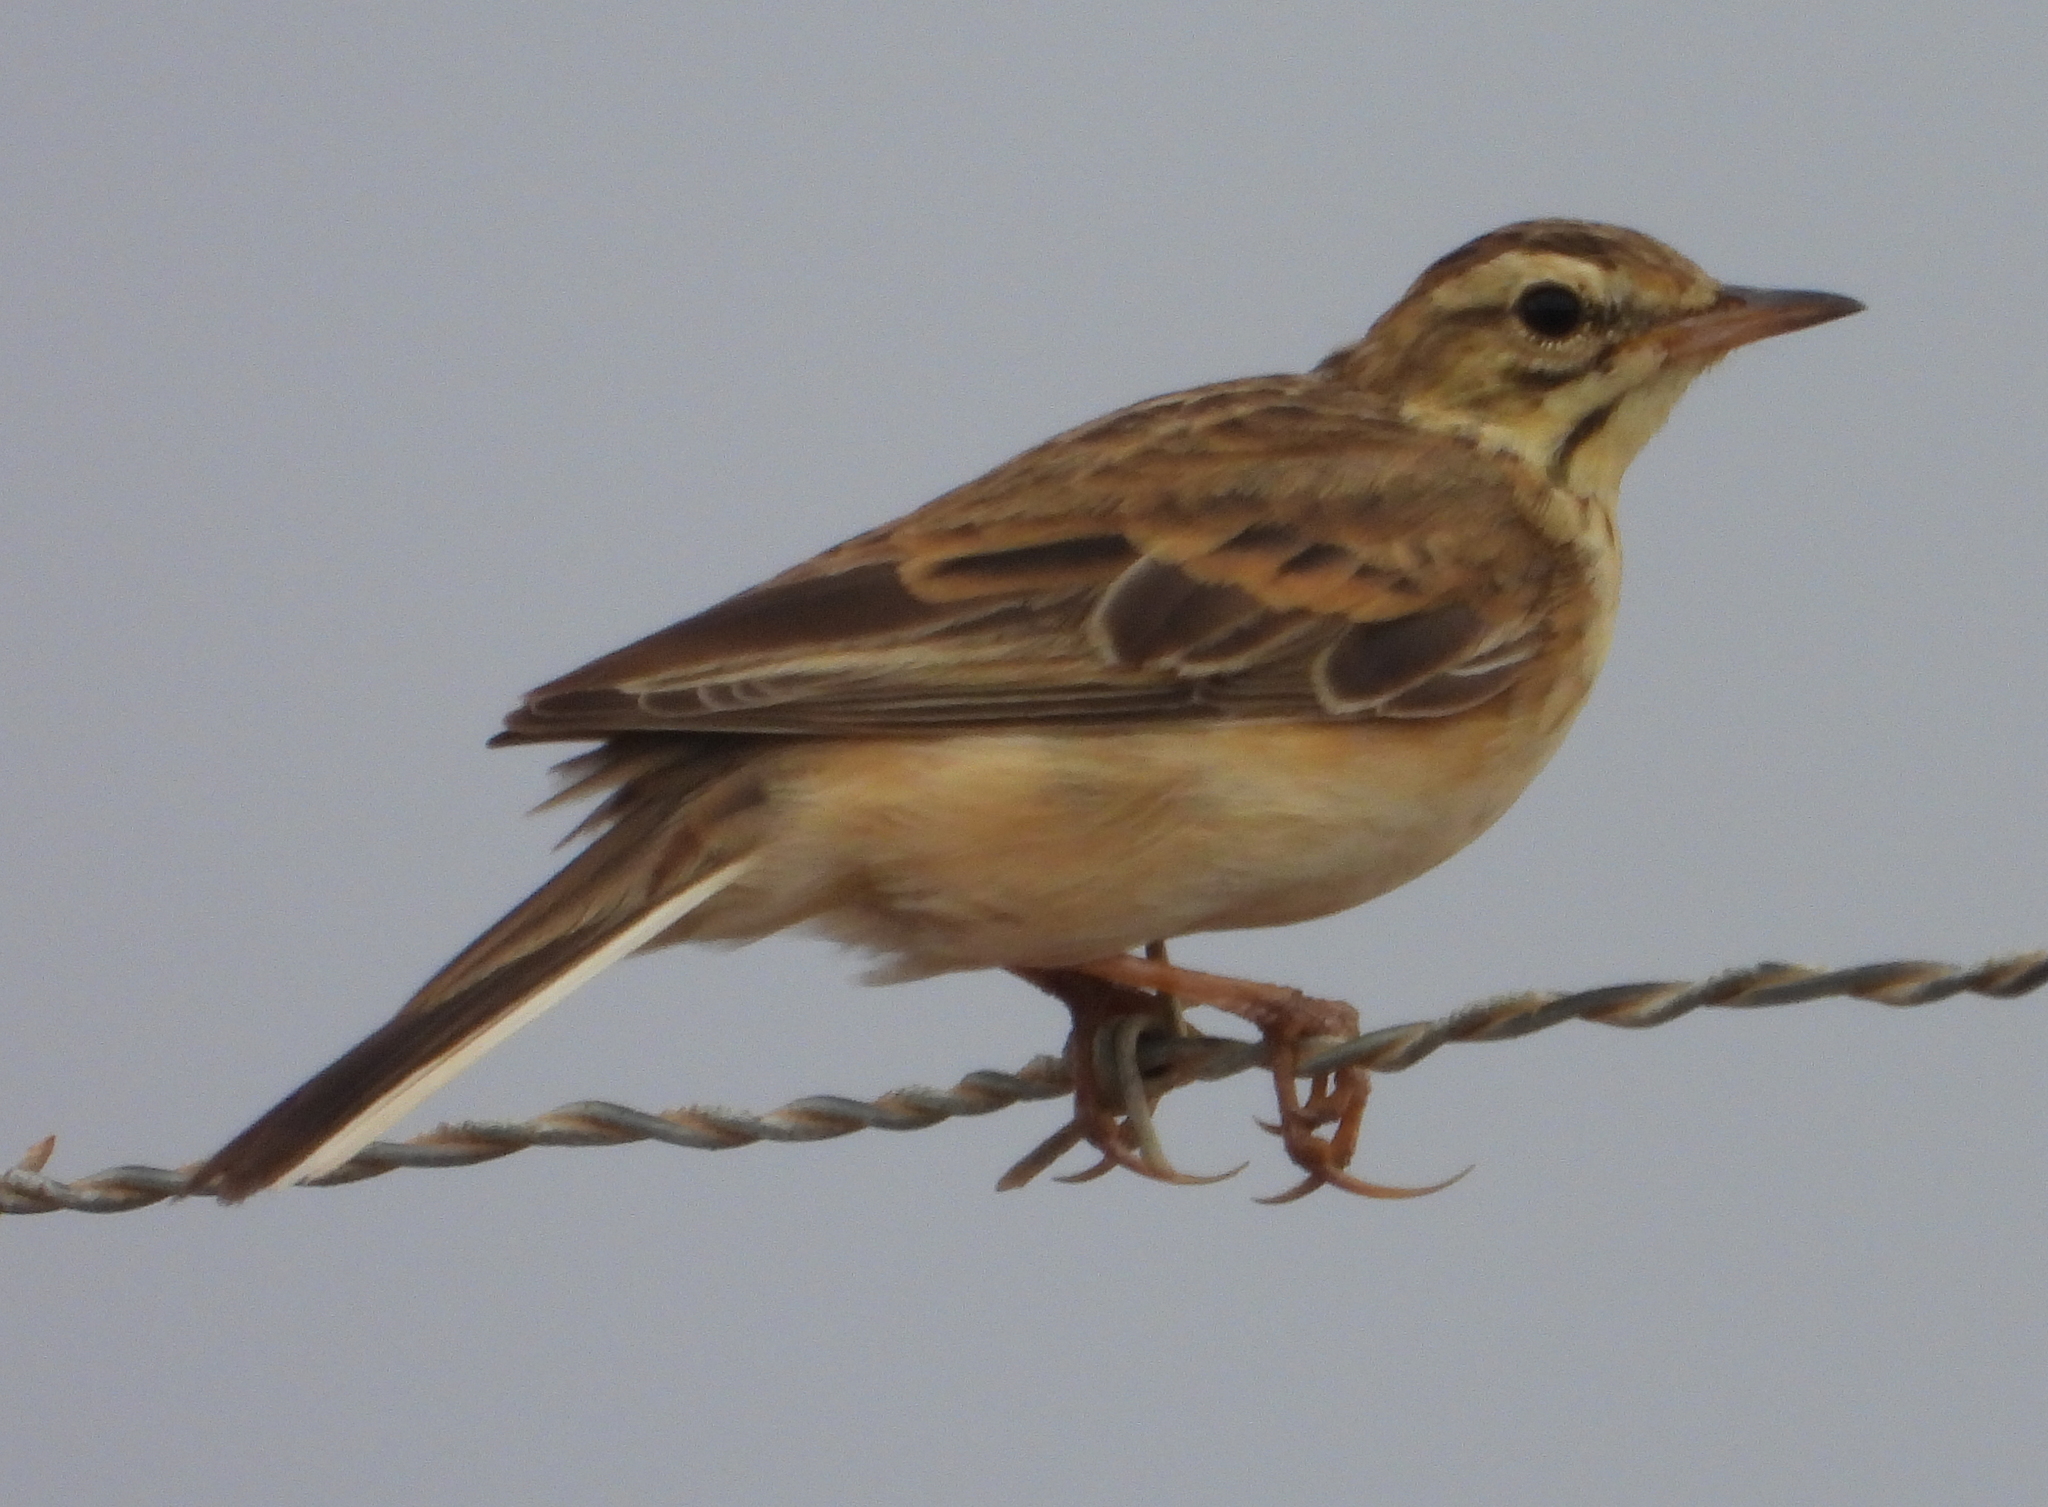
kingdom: Animalia
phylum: Chordata
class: Aves
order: Passeriformes
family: Motacillidae
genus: Anthus
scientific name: Anthus cinnamomeus
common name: African pipit
